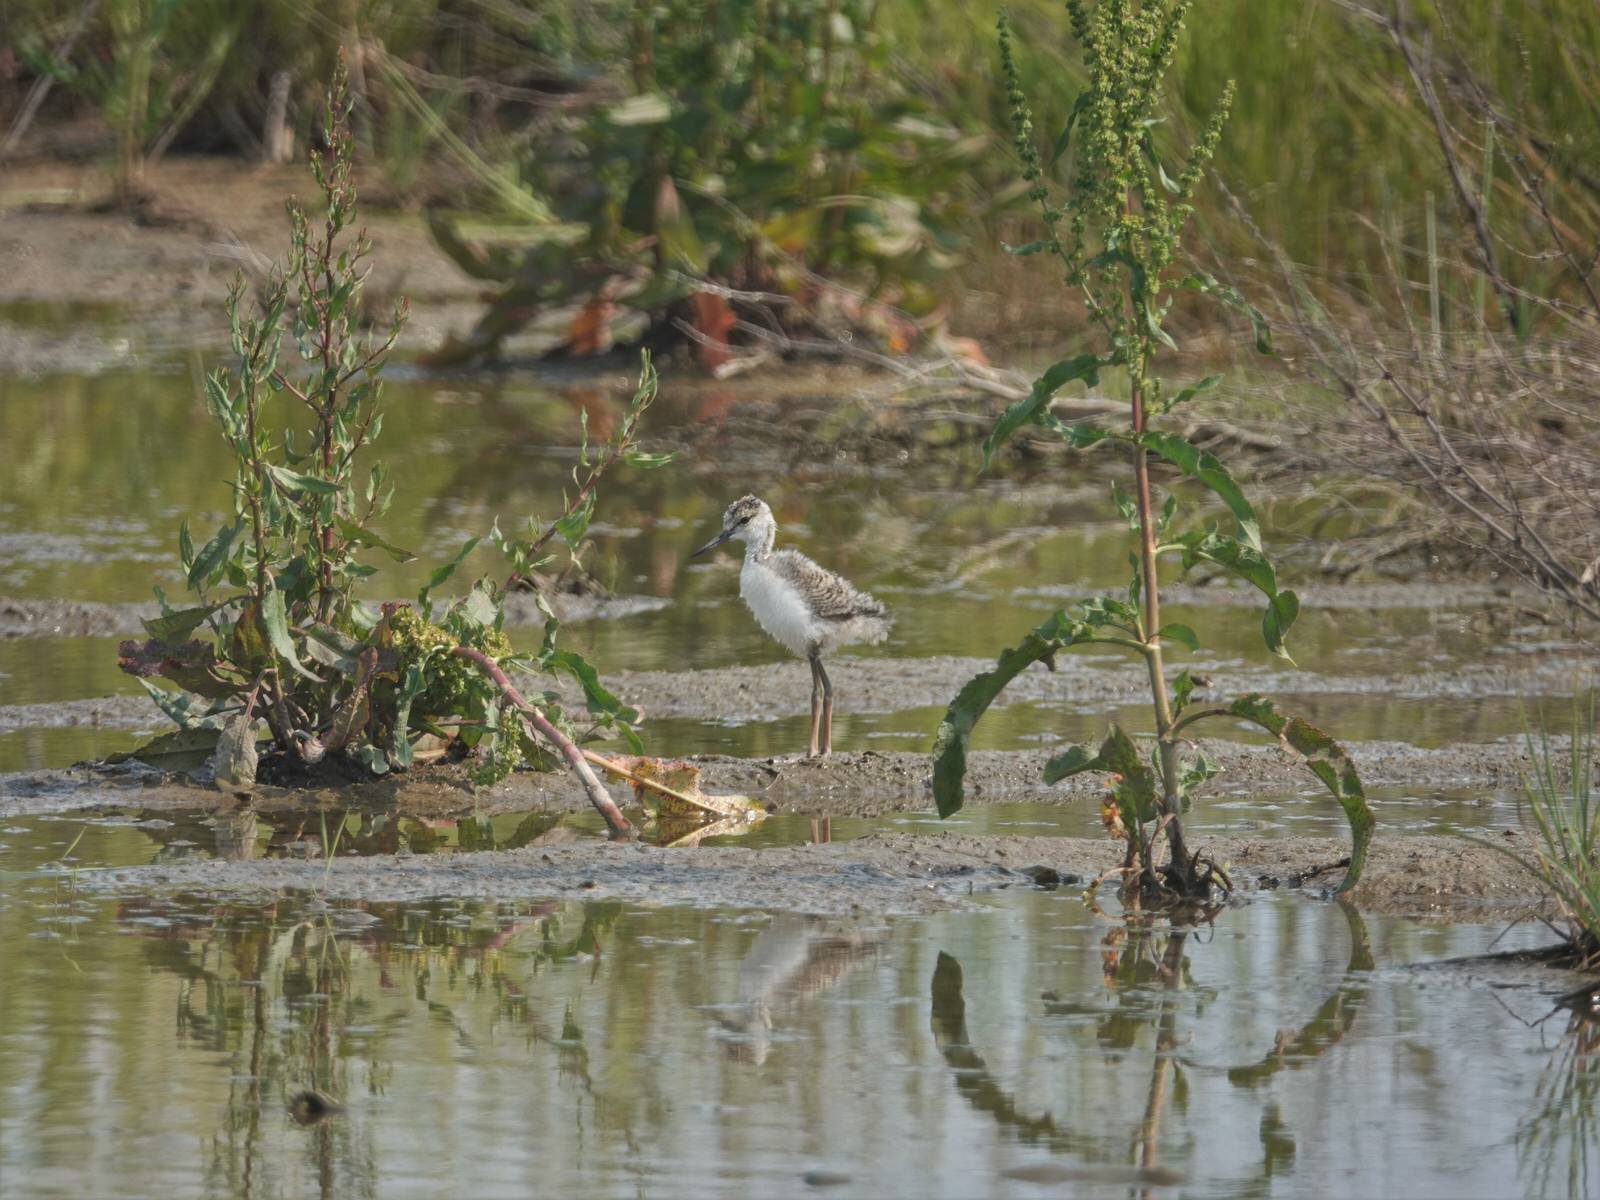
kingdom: Animalia
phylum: Chordata
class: Aves
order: Charadriiformes
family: Recurvirostridae
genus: Himantopus
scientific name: Himantopus leucocephalus
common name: White-headed stilt
